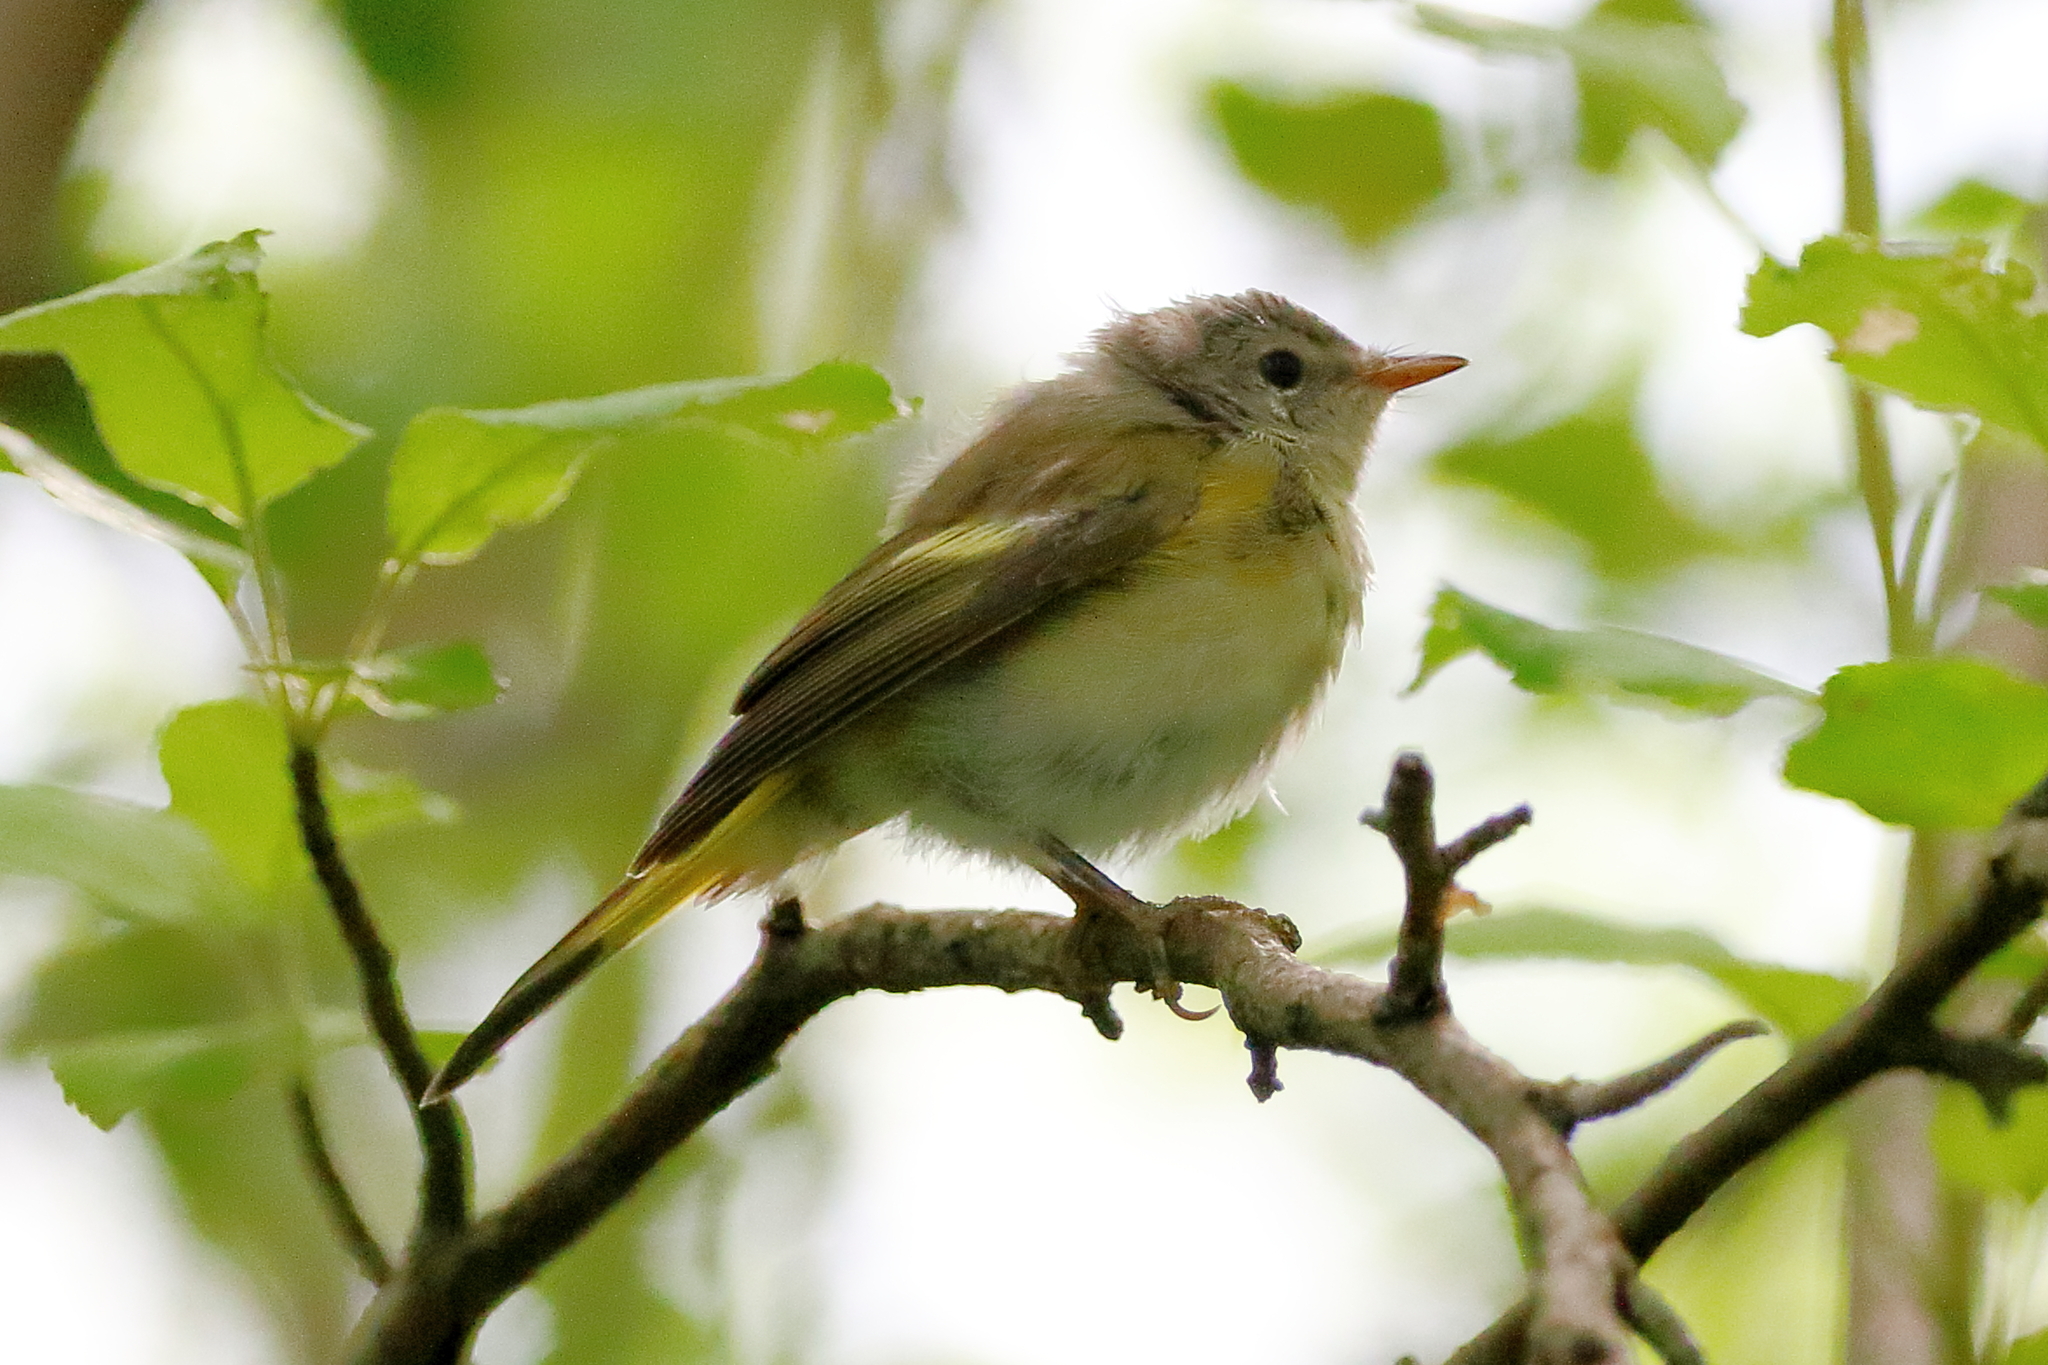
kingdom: Animalia
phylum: Chordata
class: Aves
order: Passeriformes
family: Parulidae
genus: Setophaga
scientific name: Setophaga ruticilla
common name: American redstart
